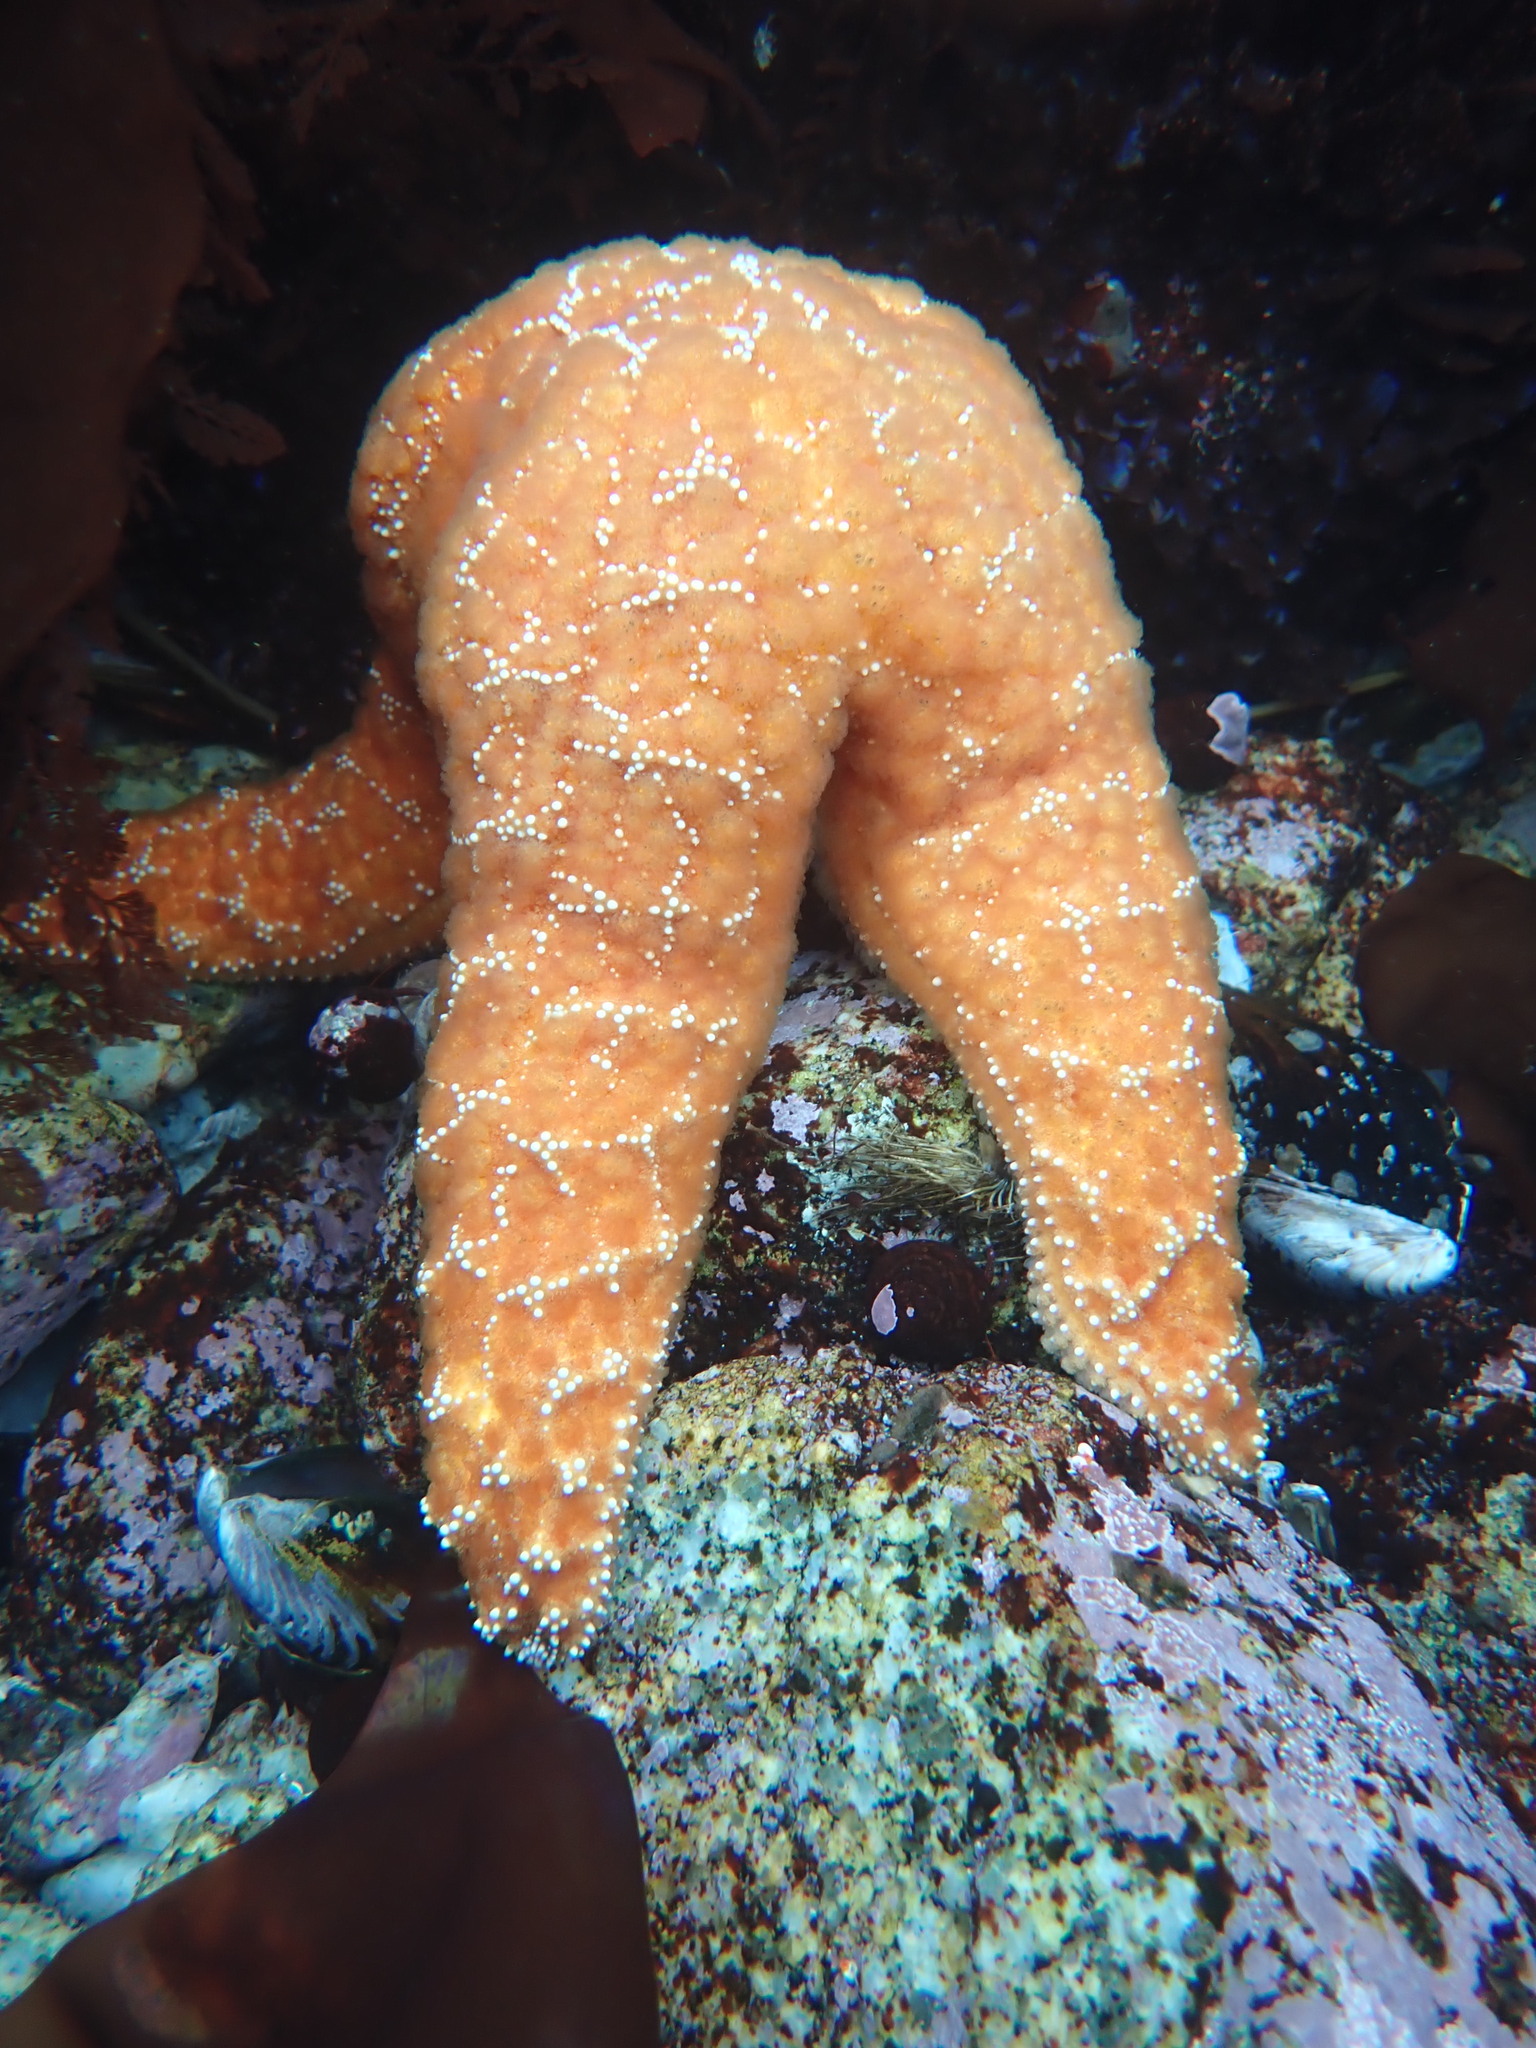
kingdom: Animalia
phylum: Echinodermata
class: Asteroidea
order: Forcipulatida
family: Asteriidae
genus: Pisaster
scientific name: Pisaster ochraceus
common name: Ochre stars
